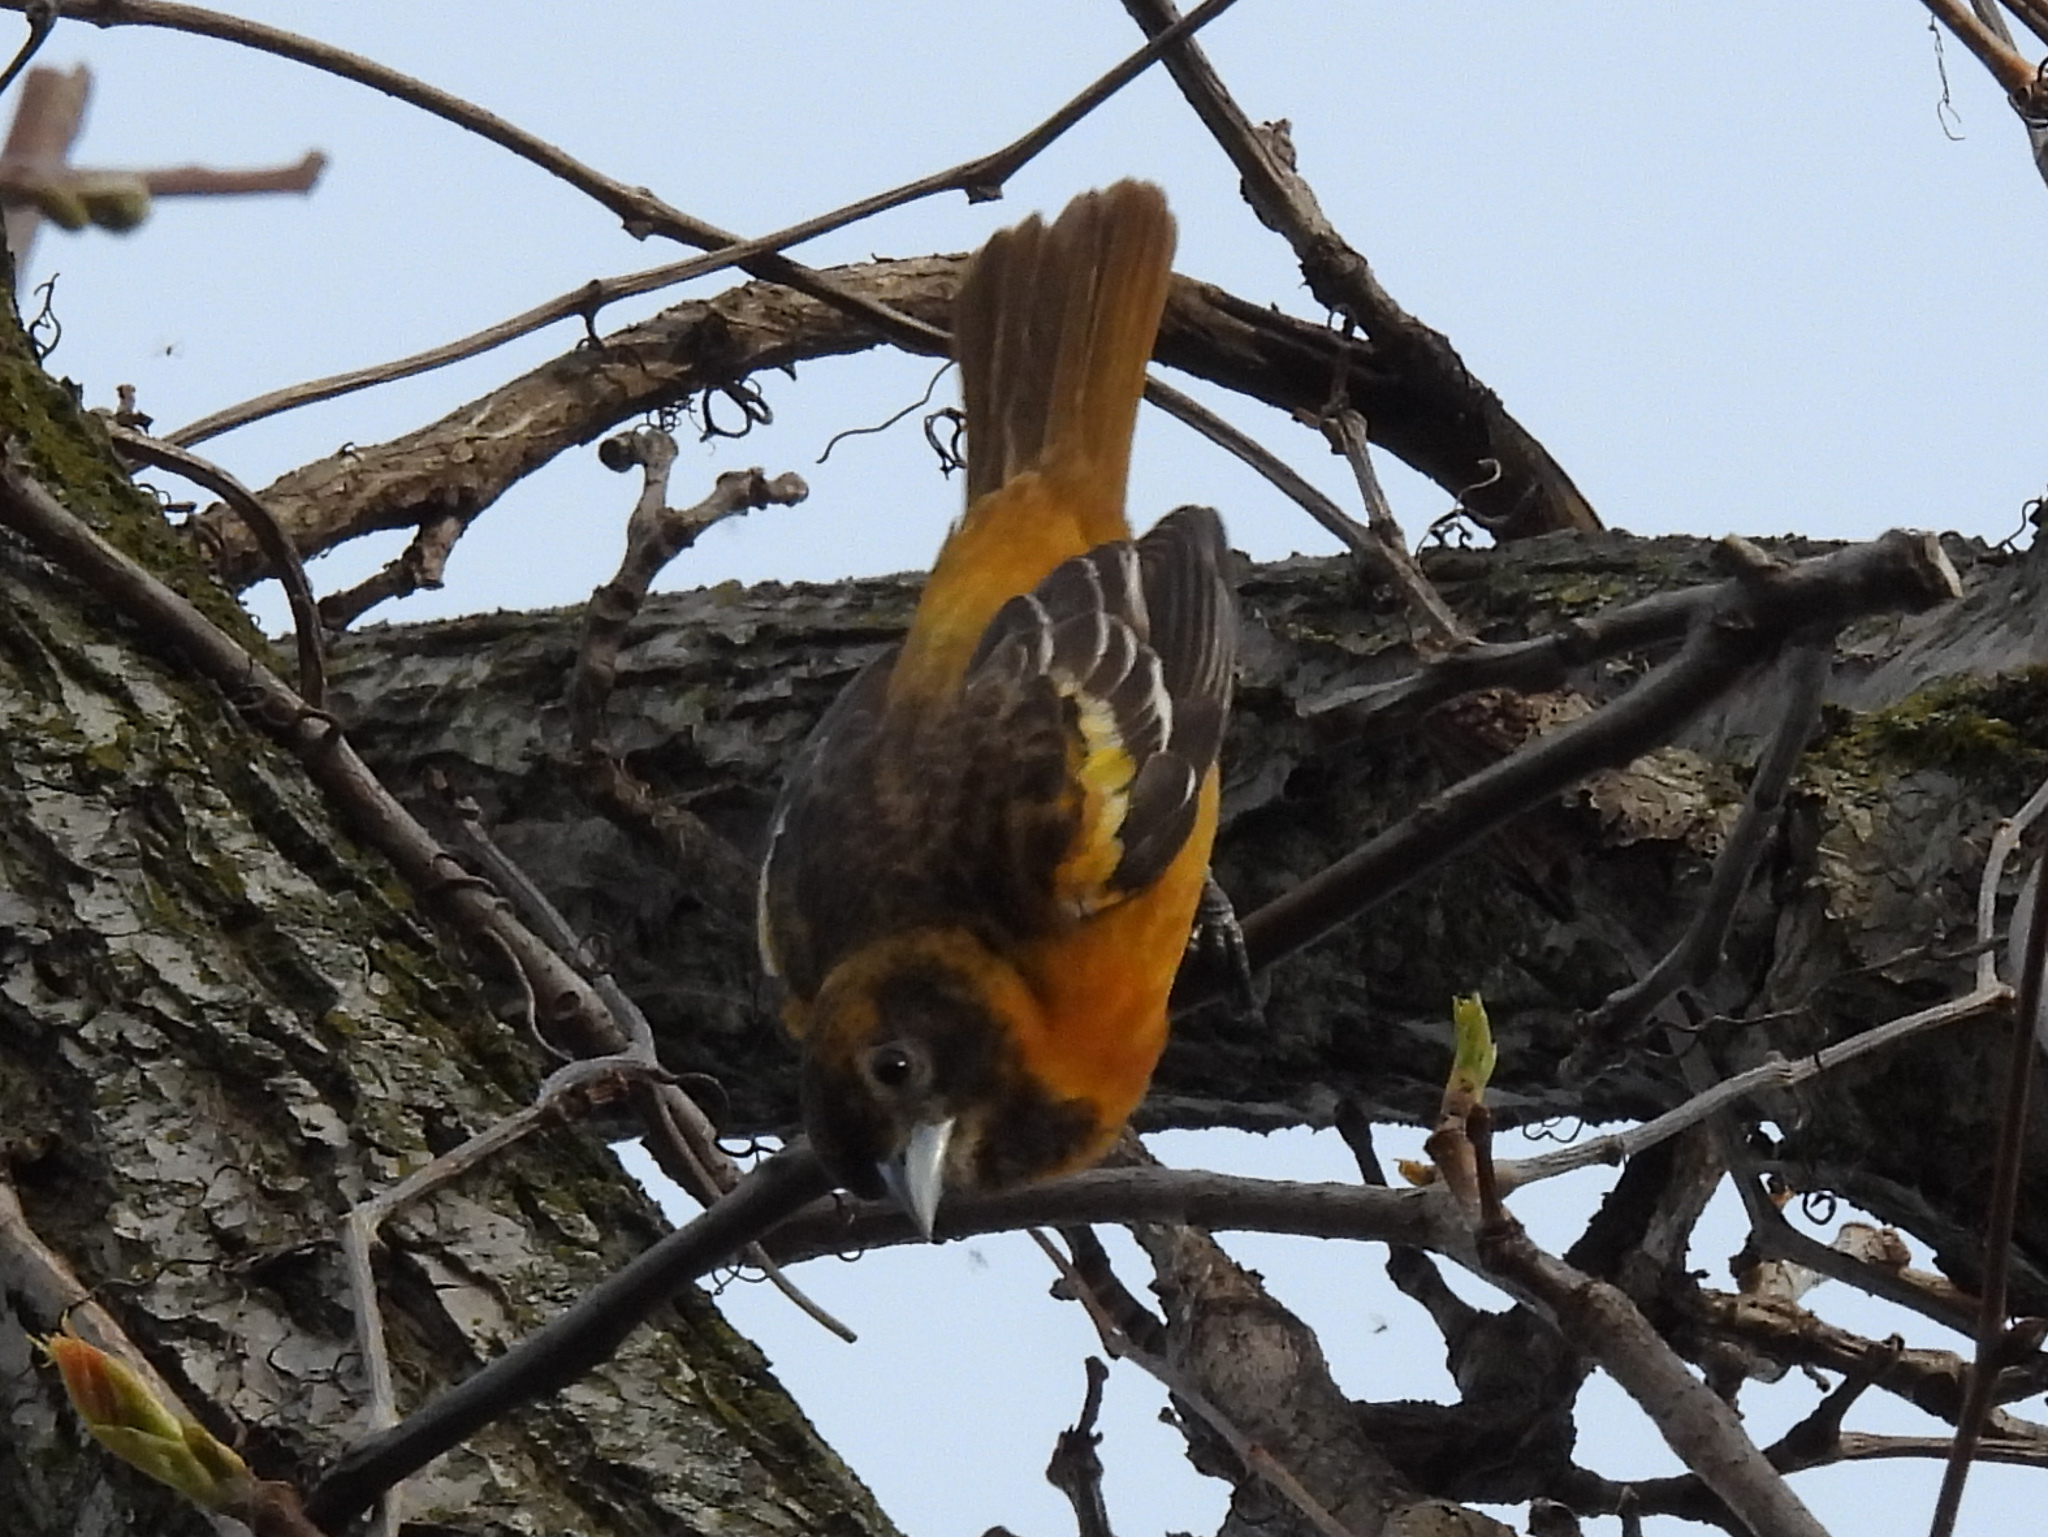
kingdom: Animalia
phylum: Chordata
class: Aves
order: Passeriformes
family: Icteridae
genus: Icterus
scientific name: Icterus galbula
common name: Baltimore oriole
